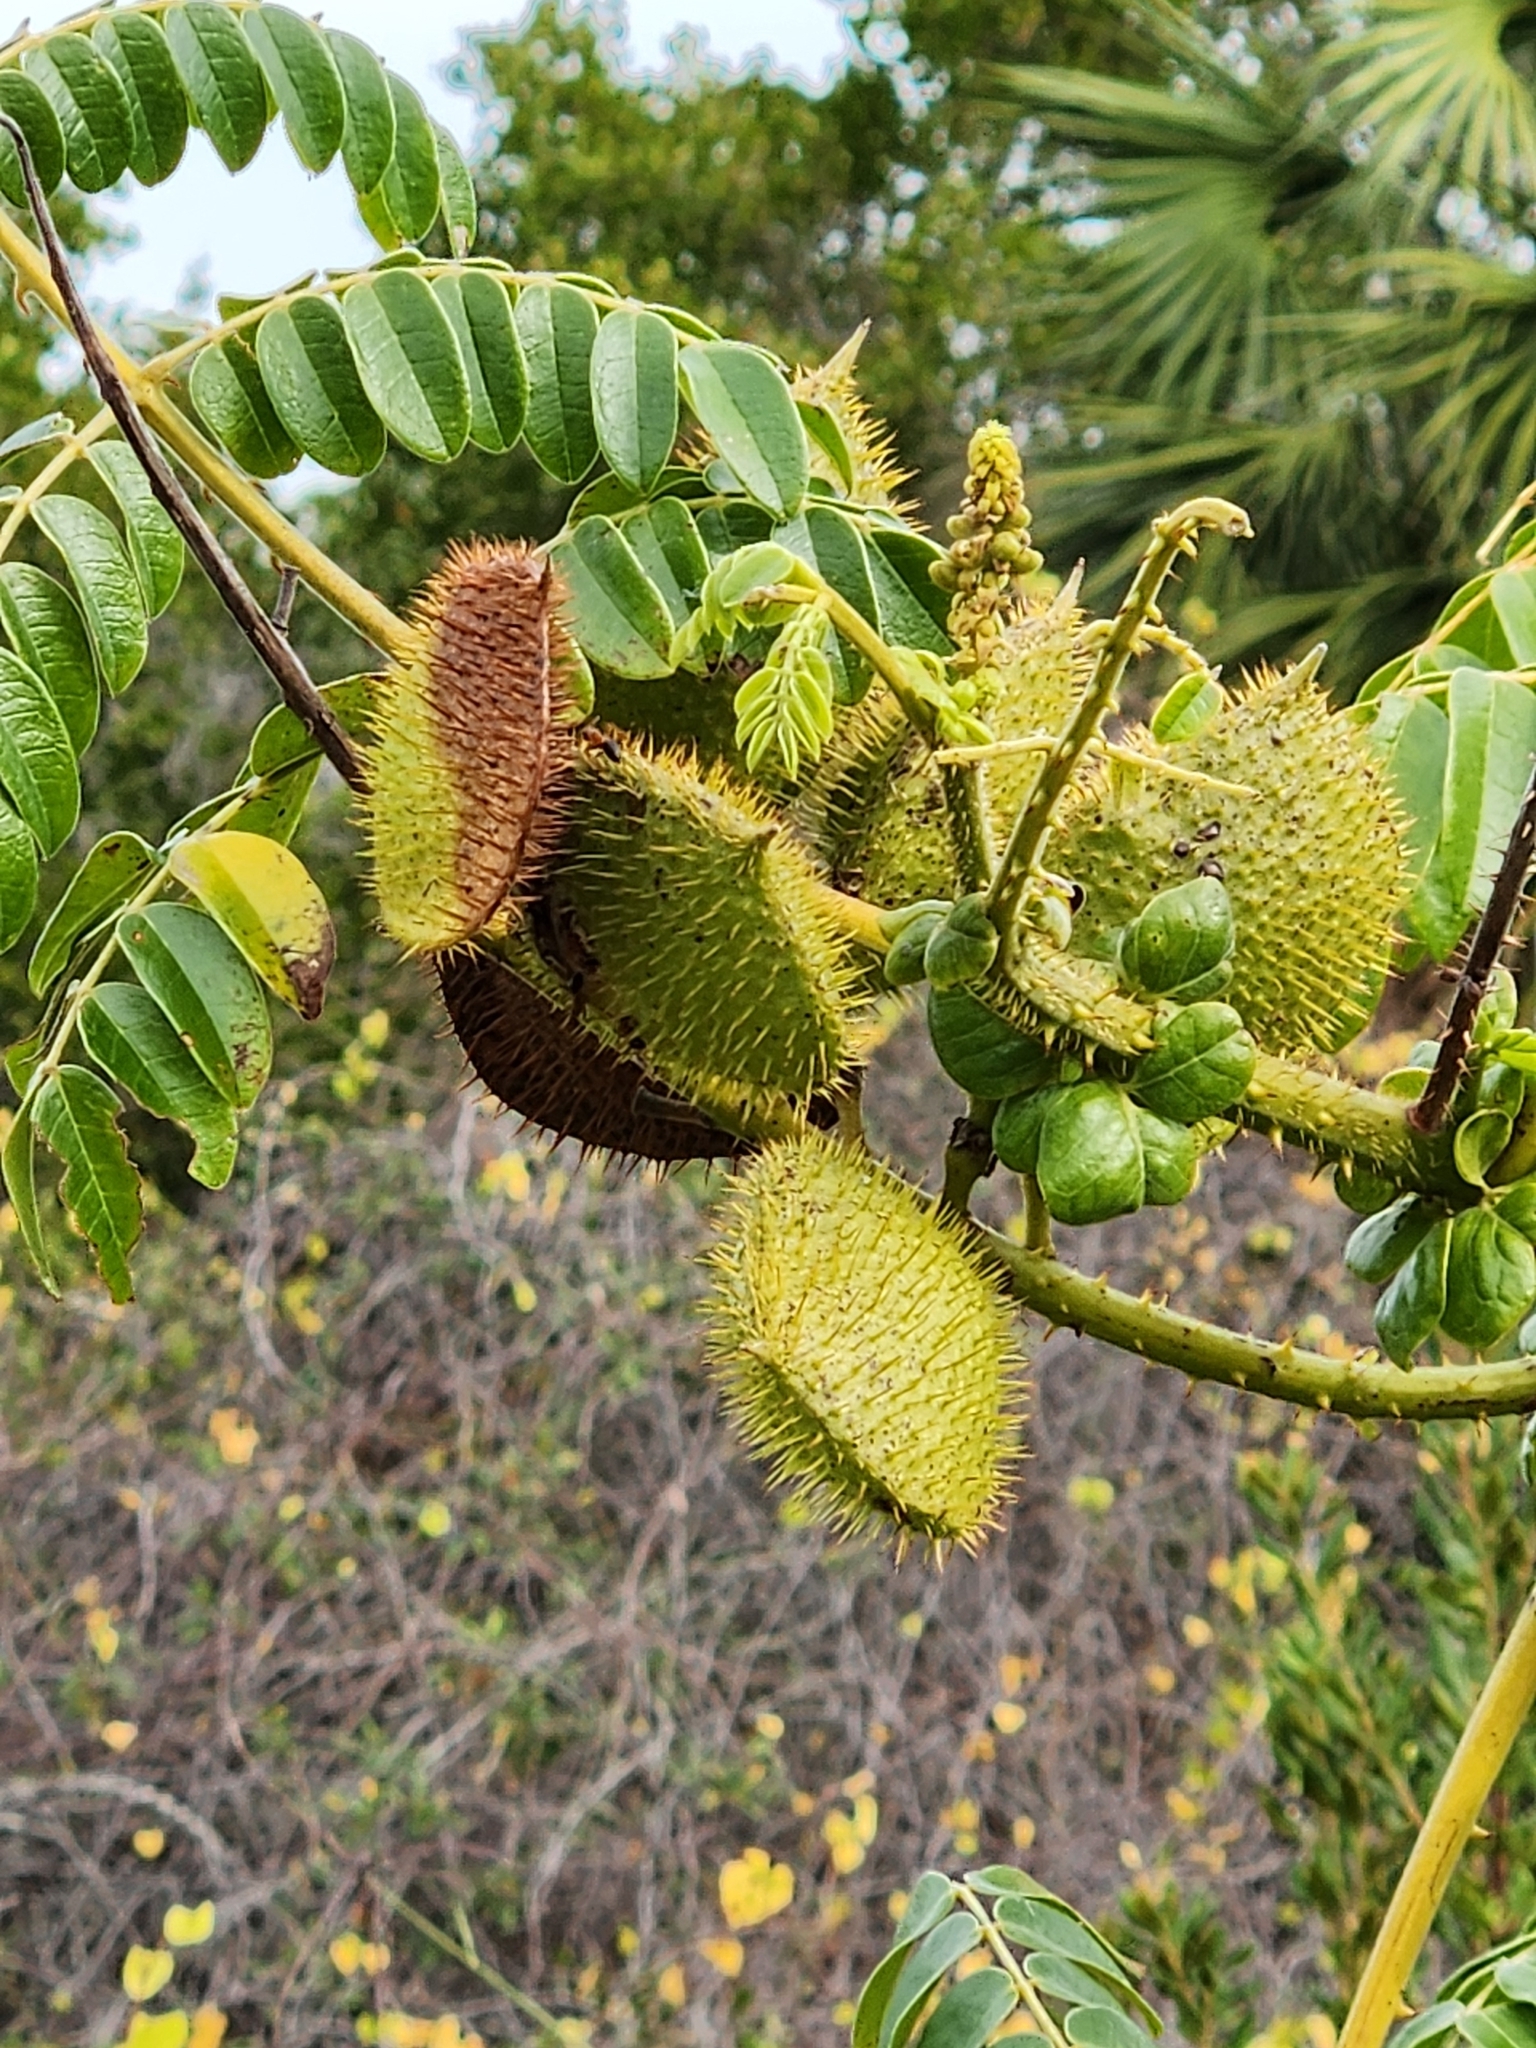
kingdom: Plantae
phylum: Tracheophyta
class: Magnoliopsida
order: Fabales
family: Fabaceae
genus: Guilandina
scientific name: Guilandina bonduc
